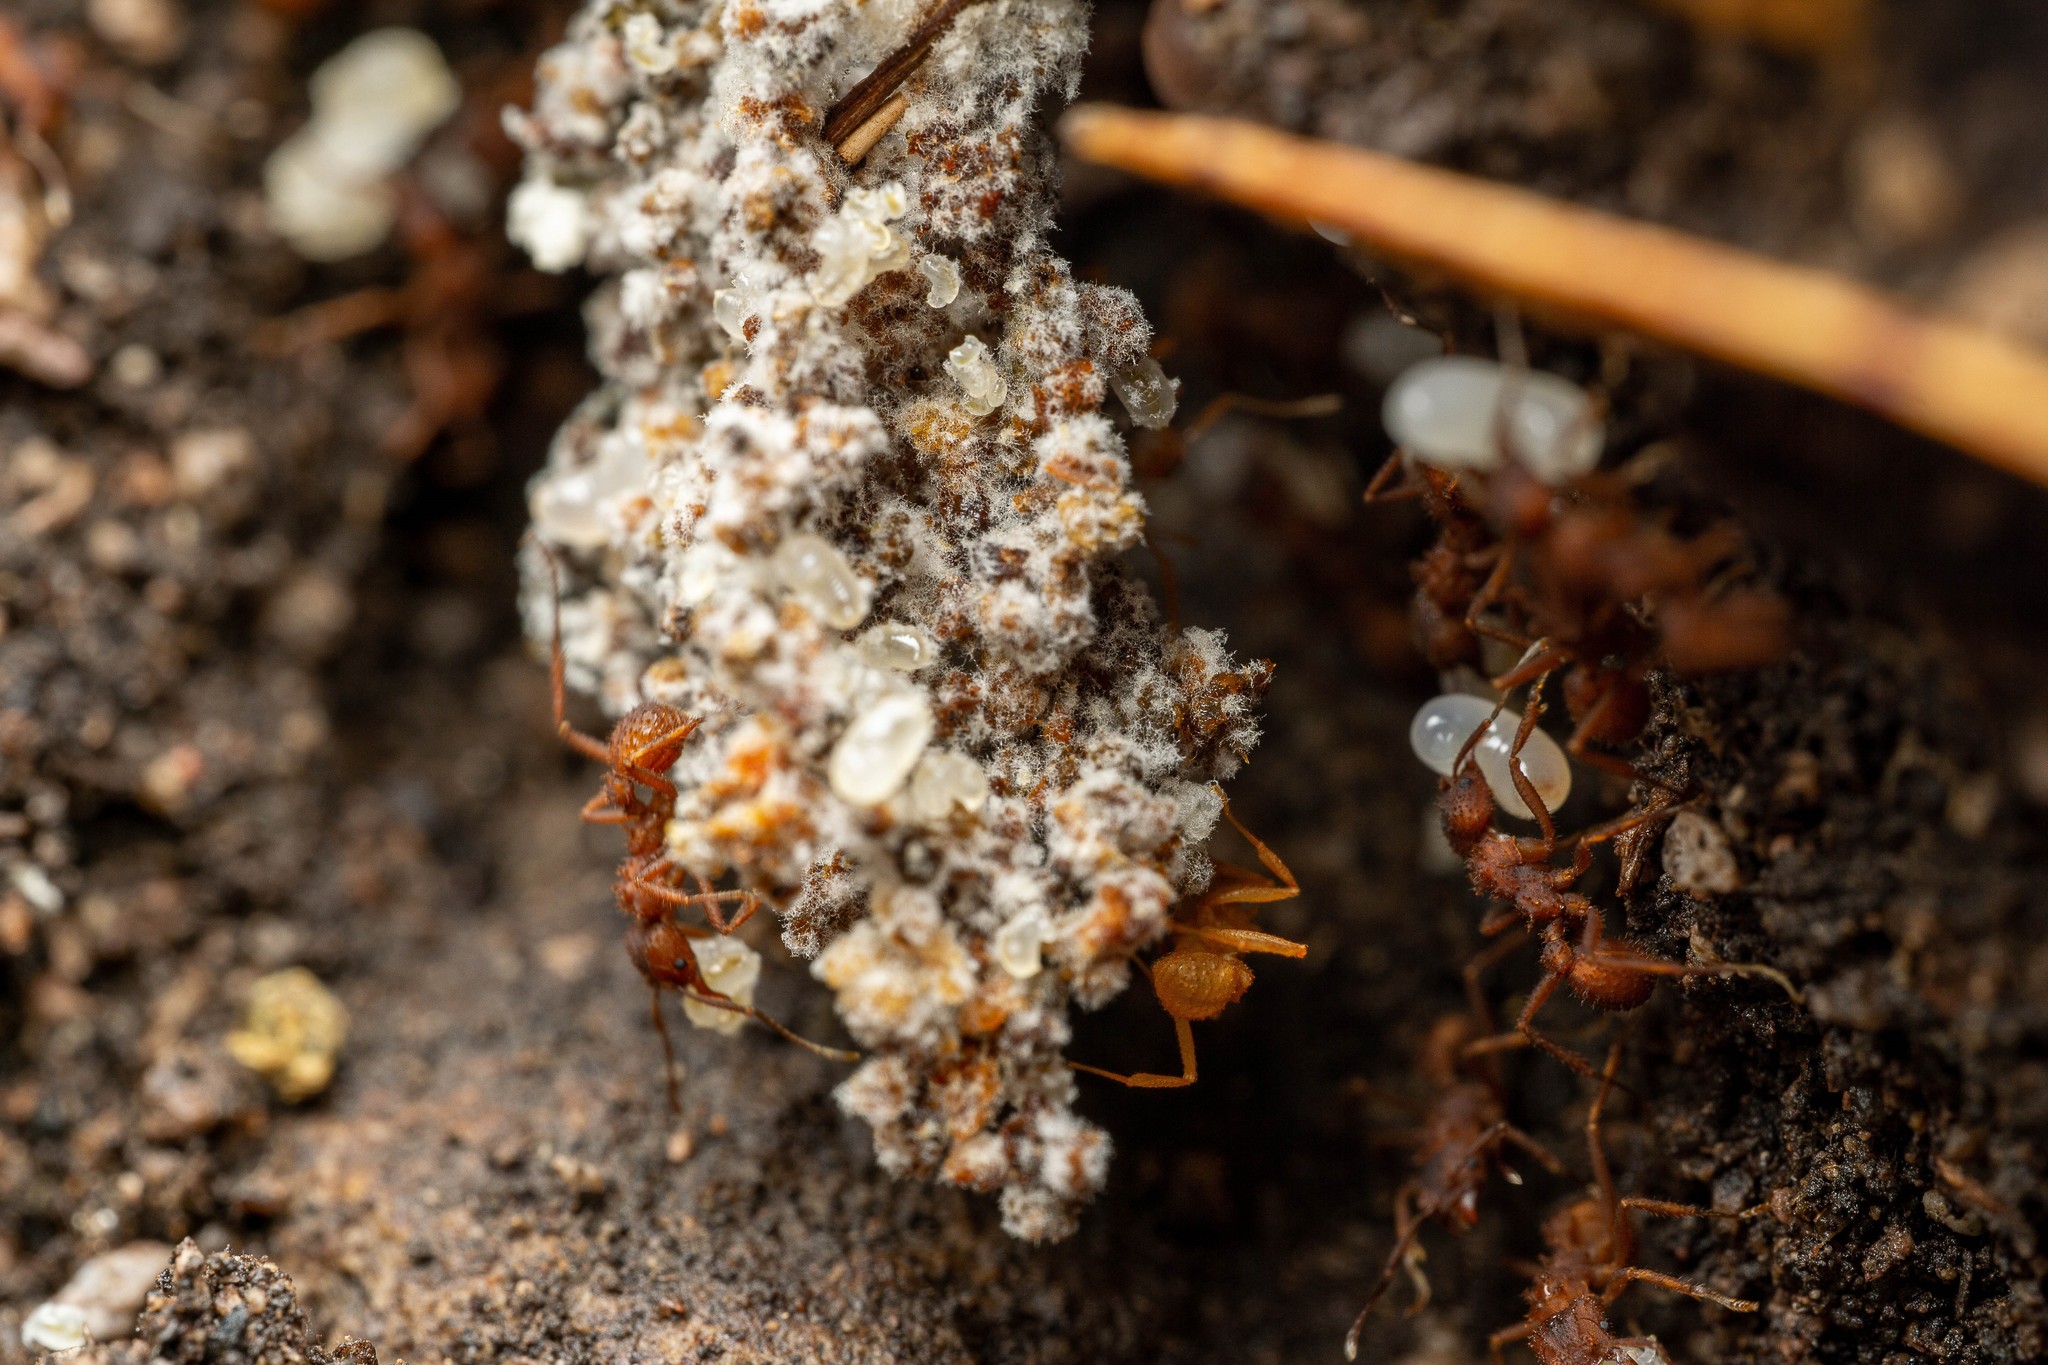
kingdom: Animalia
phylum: Arthropoda
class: Insecta
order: Hymenoptera
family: Formicidae
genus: Trachymyrmex
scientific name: Trachymyrmex arizonensis
